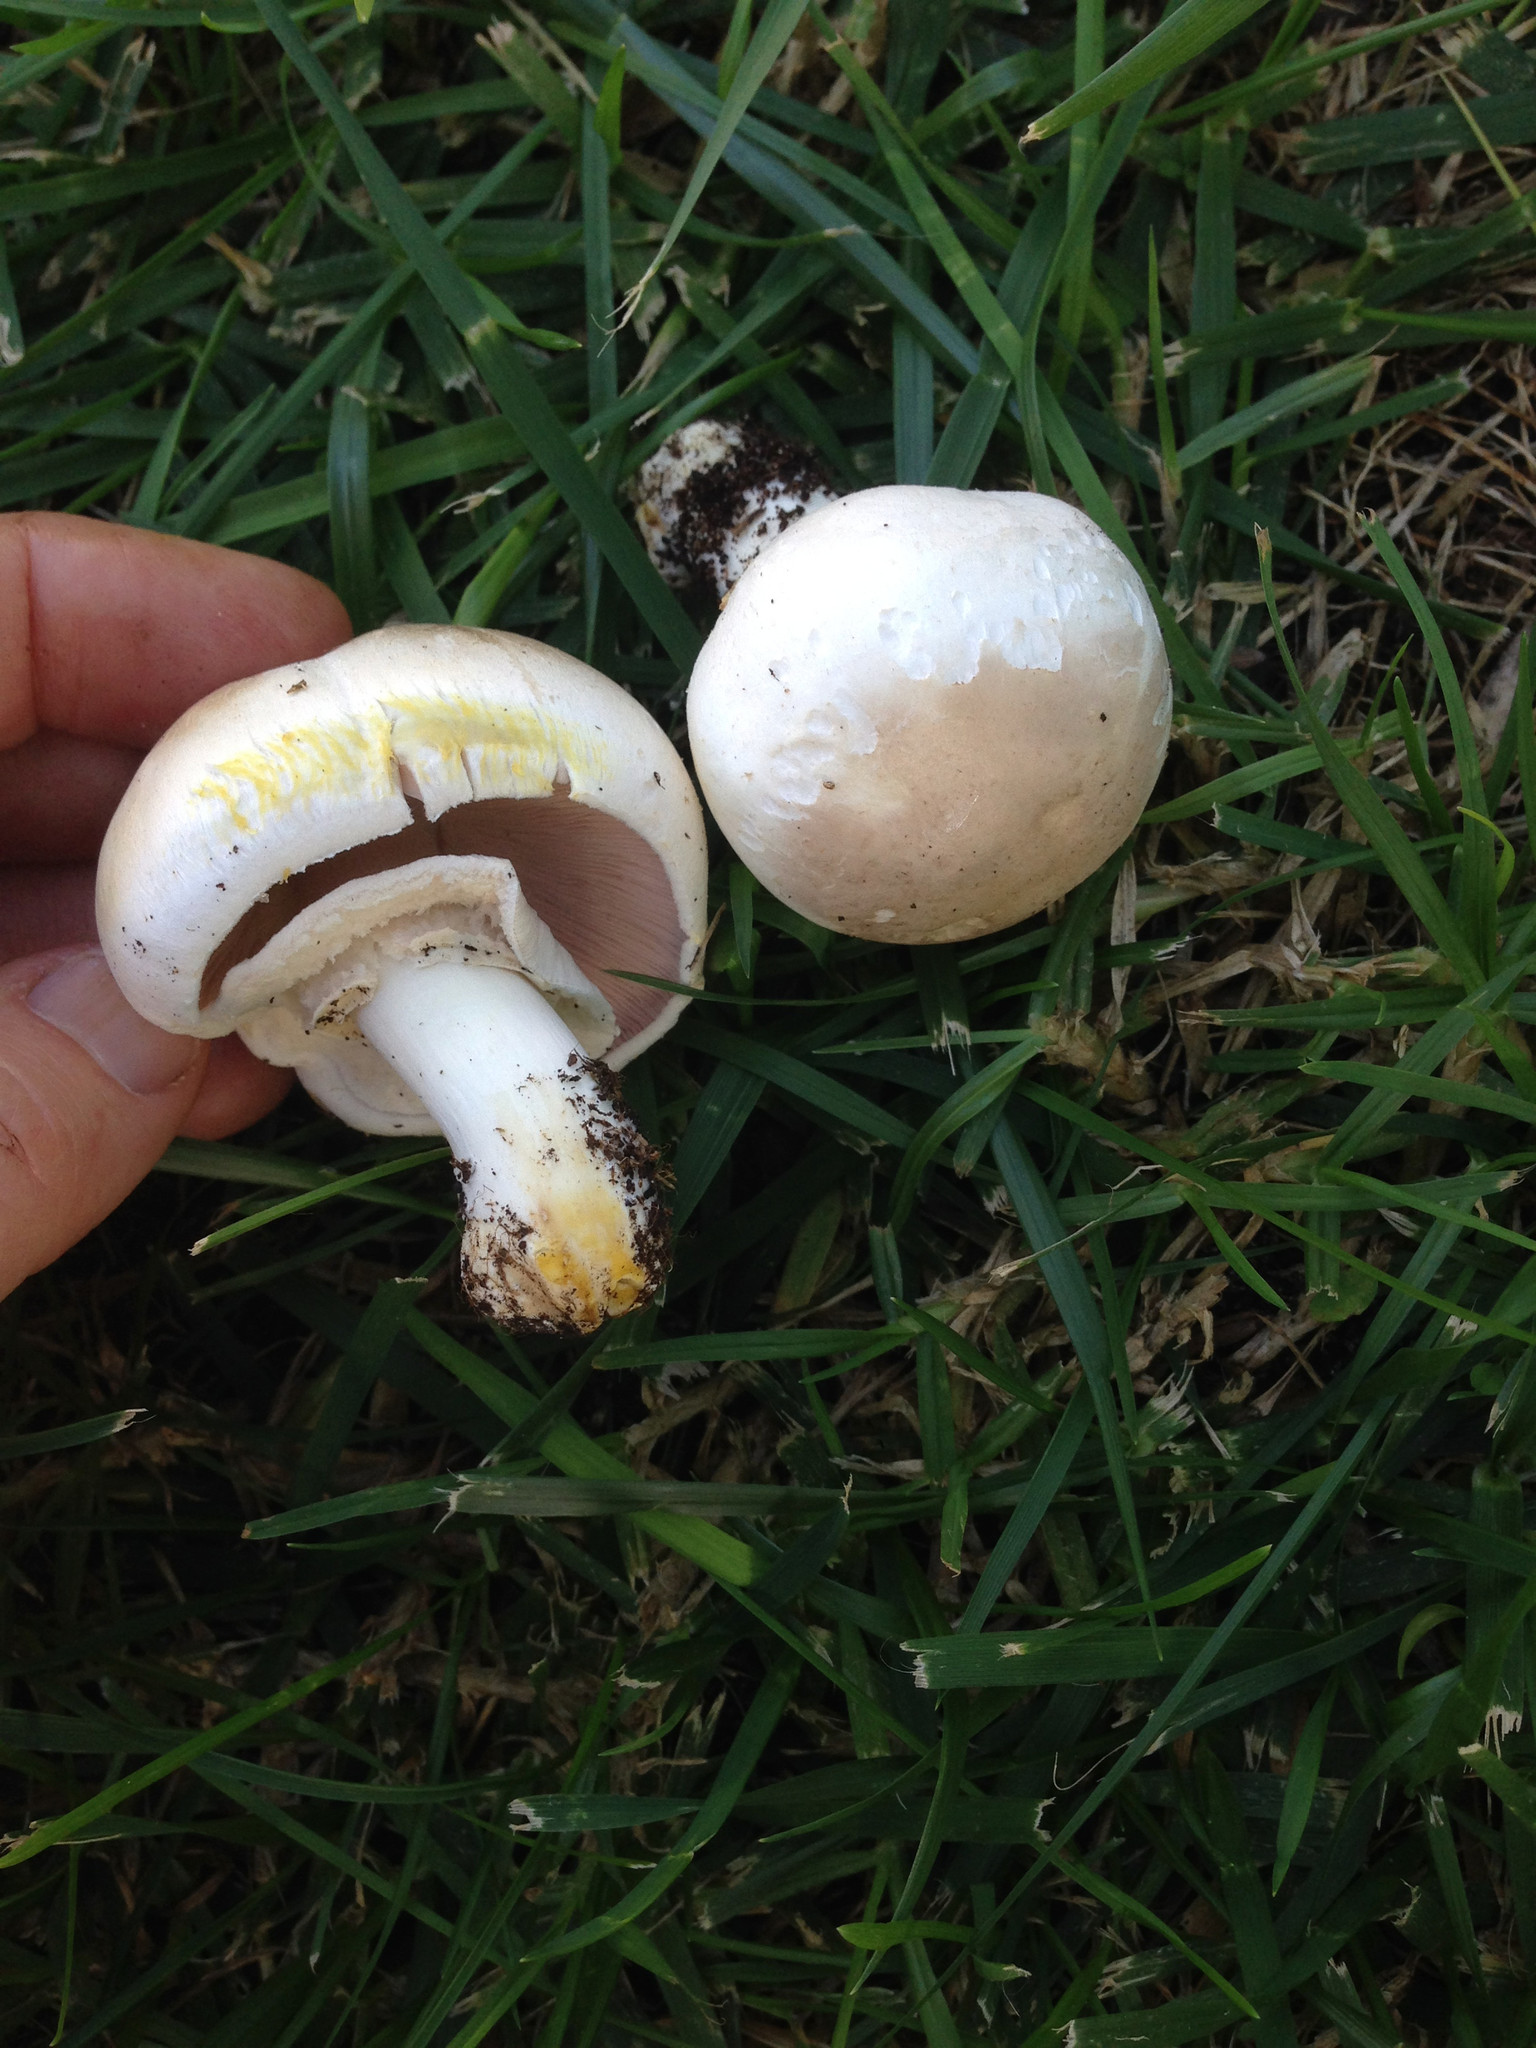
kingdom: Fungi
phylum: Basidiomycota
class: Agaricomycetes
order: Agaricales
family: Agaricaceae
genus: Agaricus
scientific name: Agaricus xanthodermus
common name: Yellow stainer
